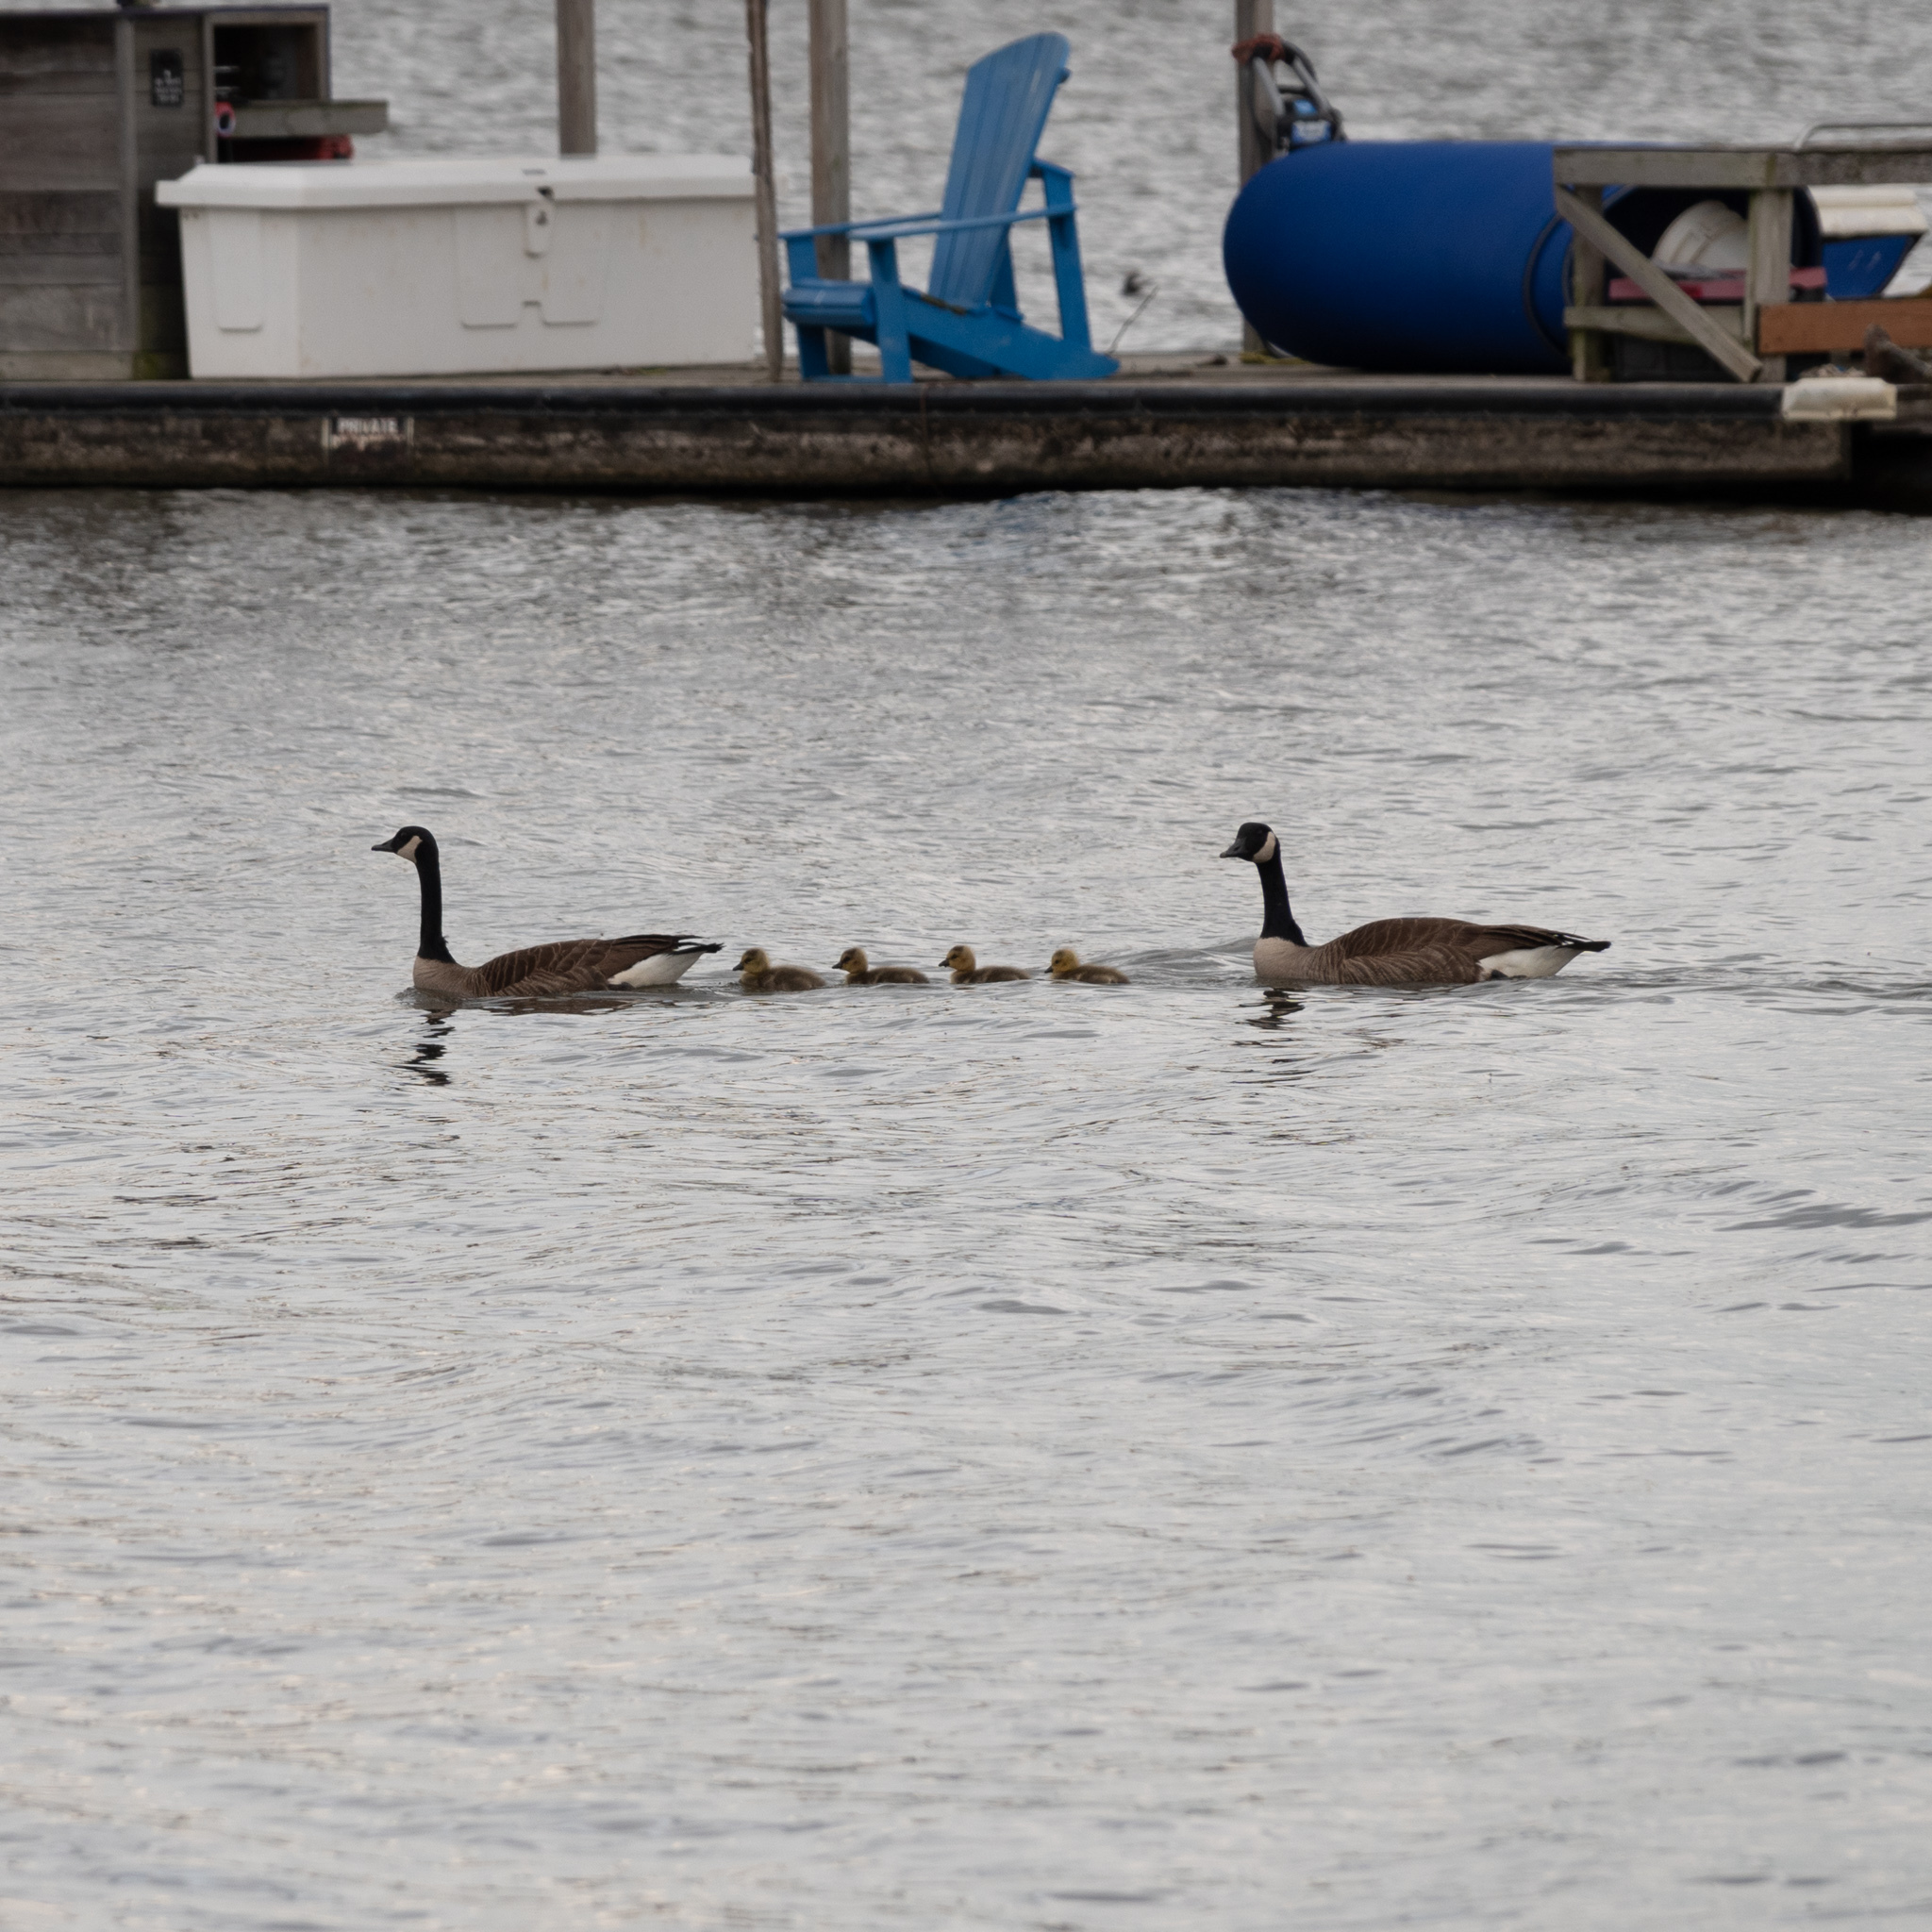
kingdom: Animalia
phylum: Chordata
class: Aves
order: Anseriformes
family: Anatidae
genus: Branta
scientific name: Branta canadensis
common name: Canada goose
